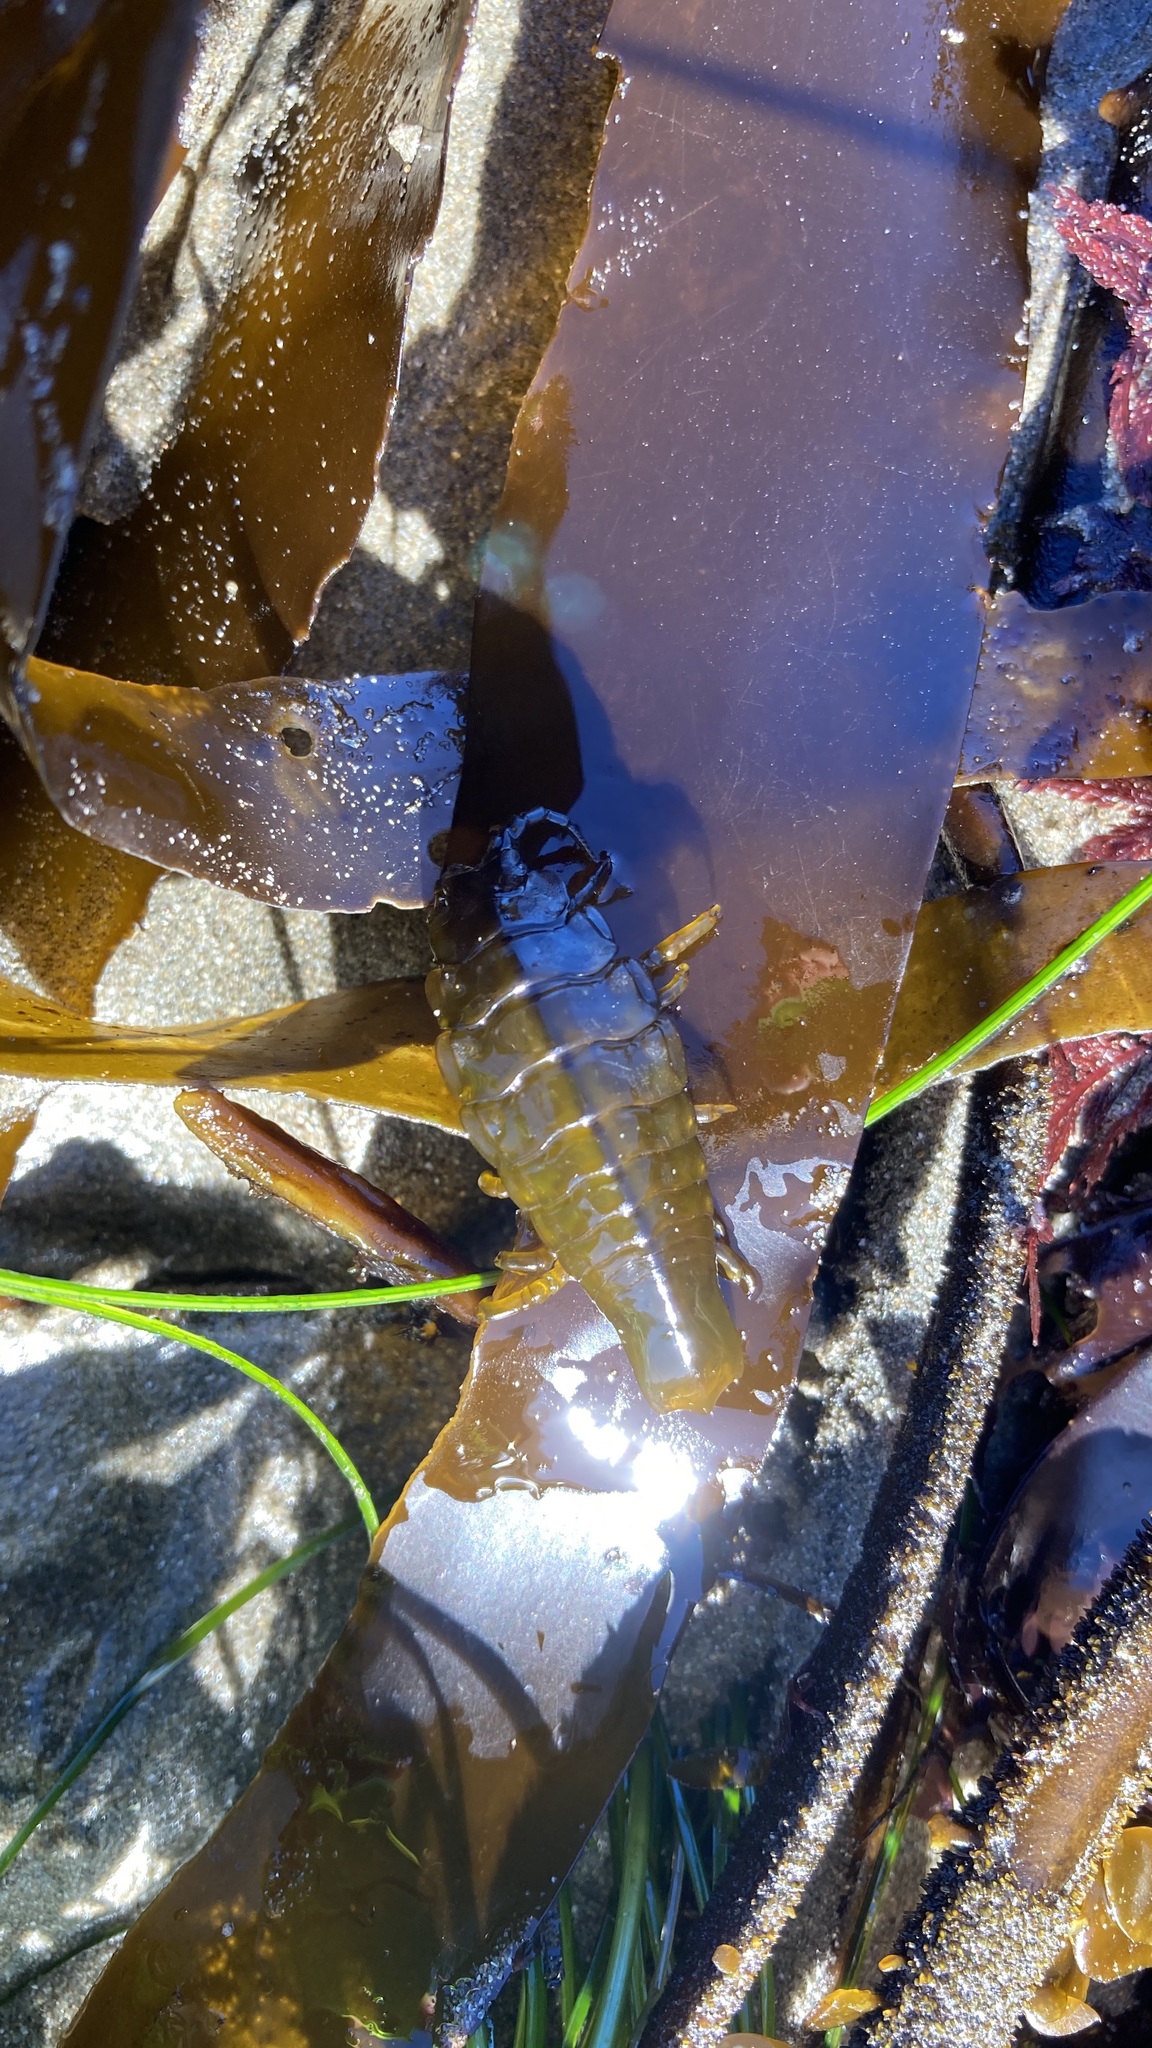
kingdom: Animalia
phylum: Arthropoda
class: Malacostraca
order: Isopoda
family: Idoteidae
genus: Pentidotea
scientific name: Pentidotea stenops
